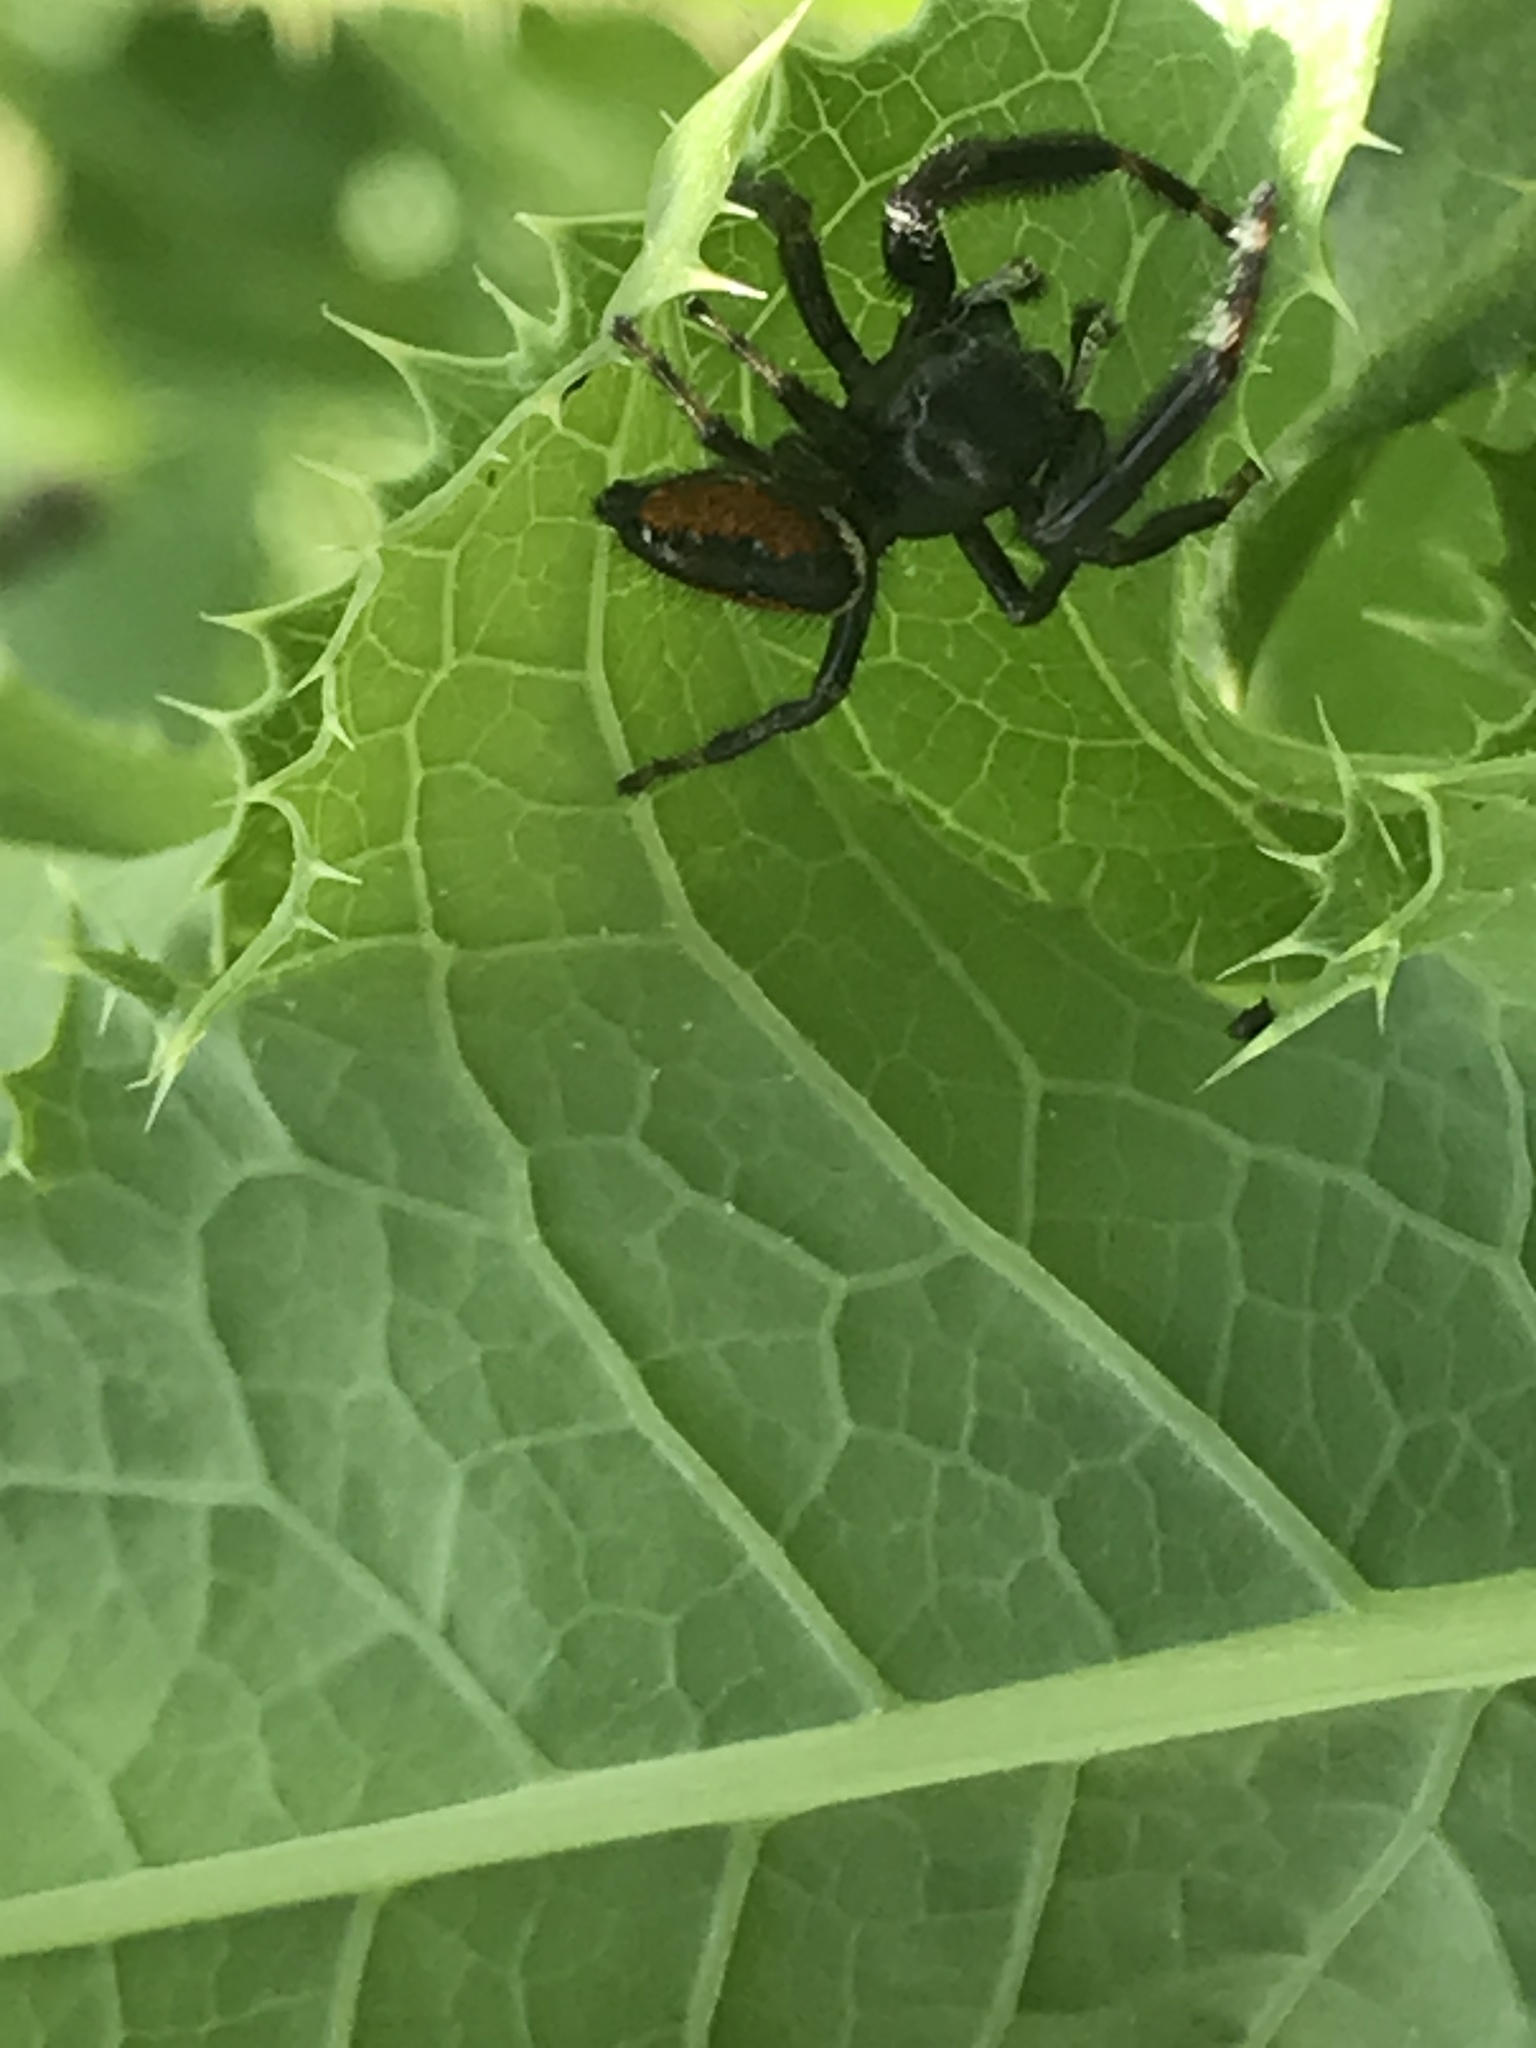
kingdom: Animalia
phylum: Arthropoda
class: Arachnida
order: Araneae
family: Salticidae
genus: Phidippus
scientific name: Phidippus clarus
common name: Brilliant jumping spider
